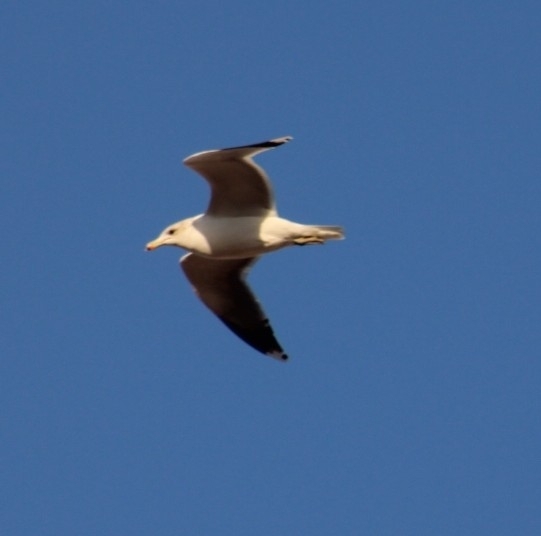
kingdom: Animalia
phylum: Chordata
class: Aves
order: Charadriiformes
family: Laridae
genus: Larus
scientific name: Larus californicus
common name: California gull
